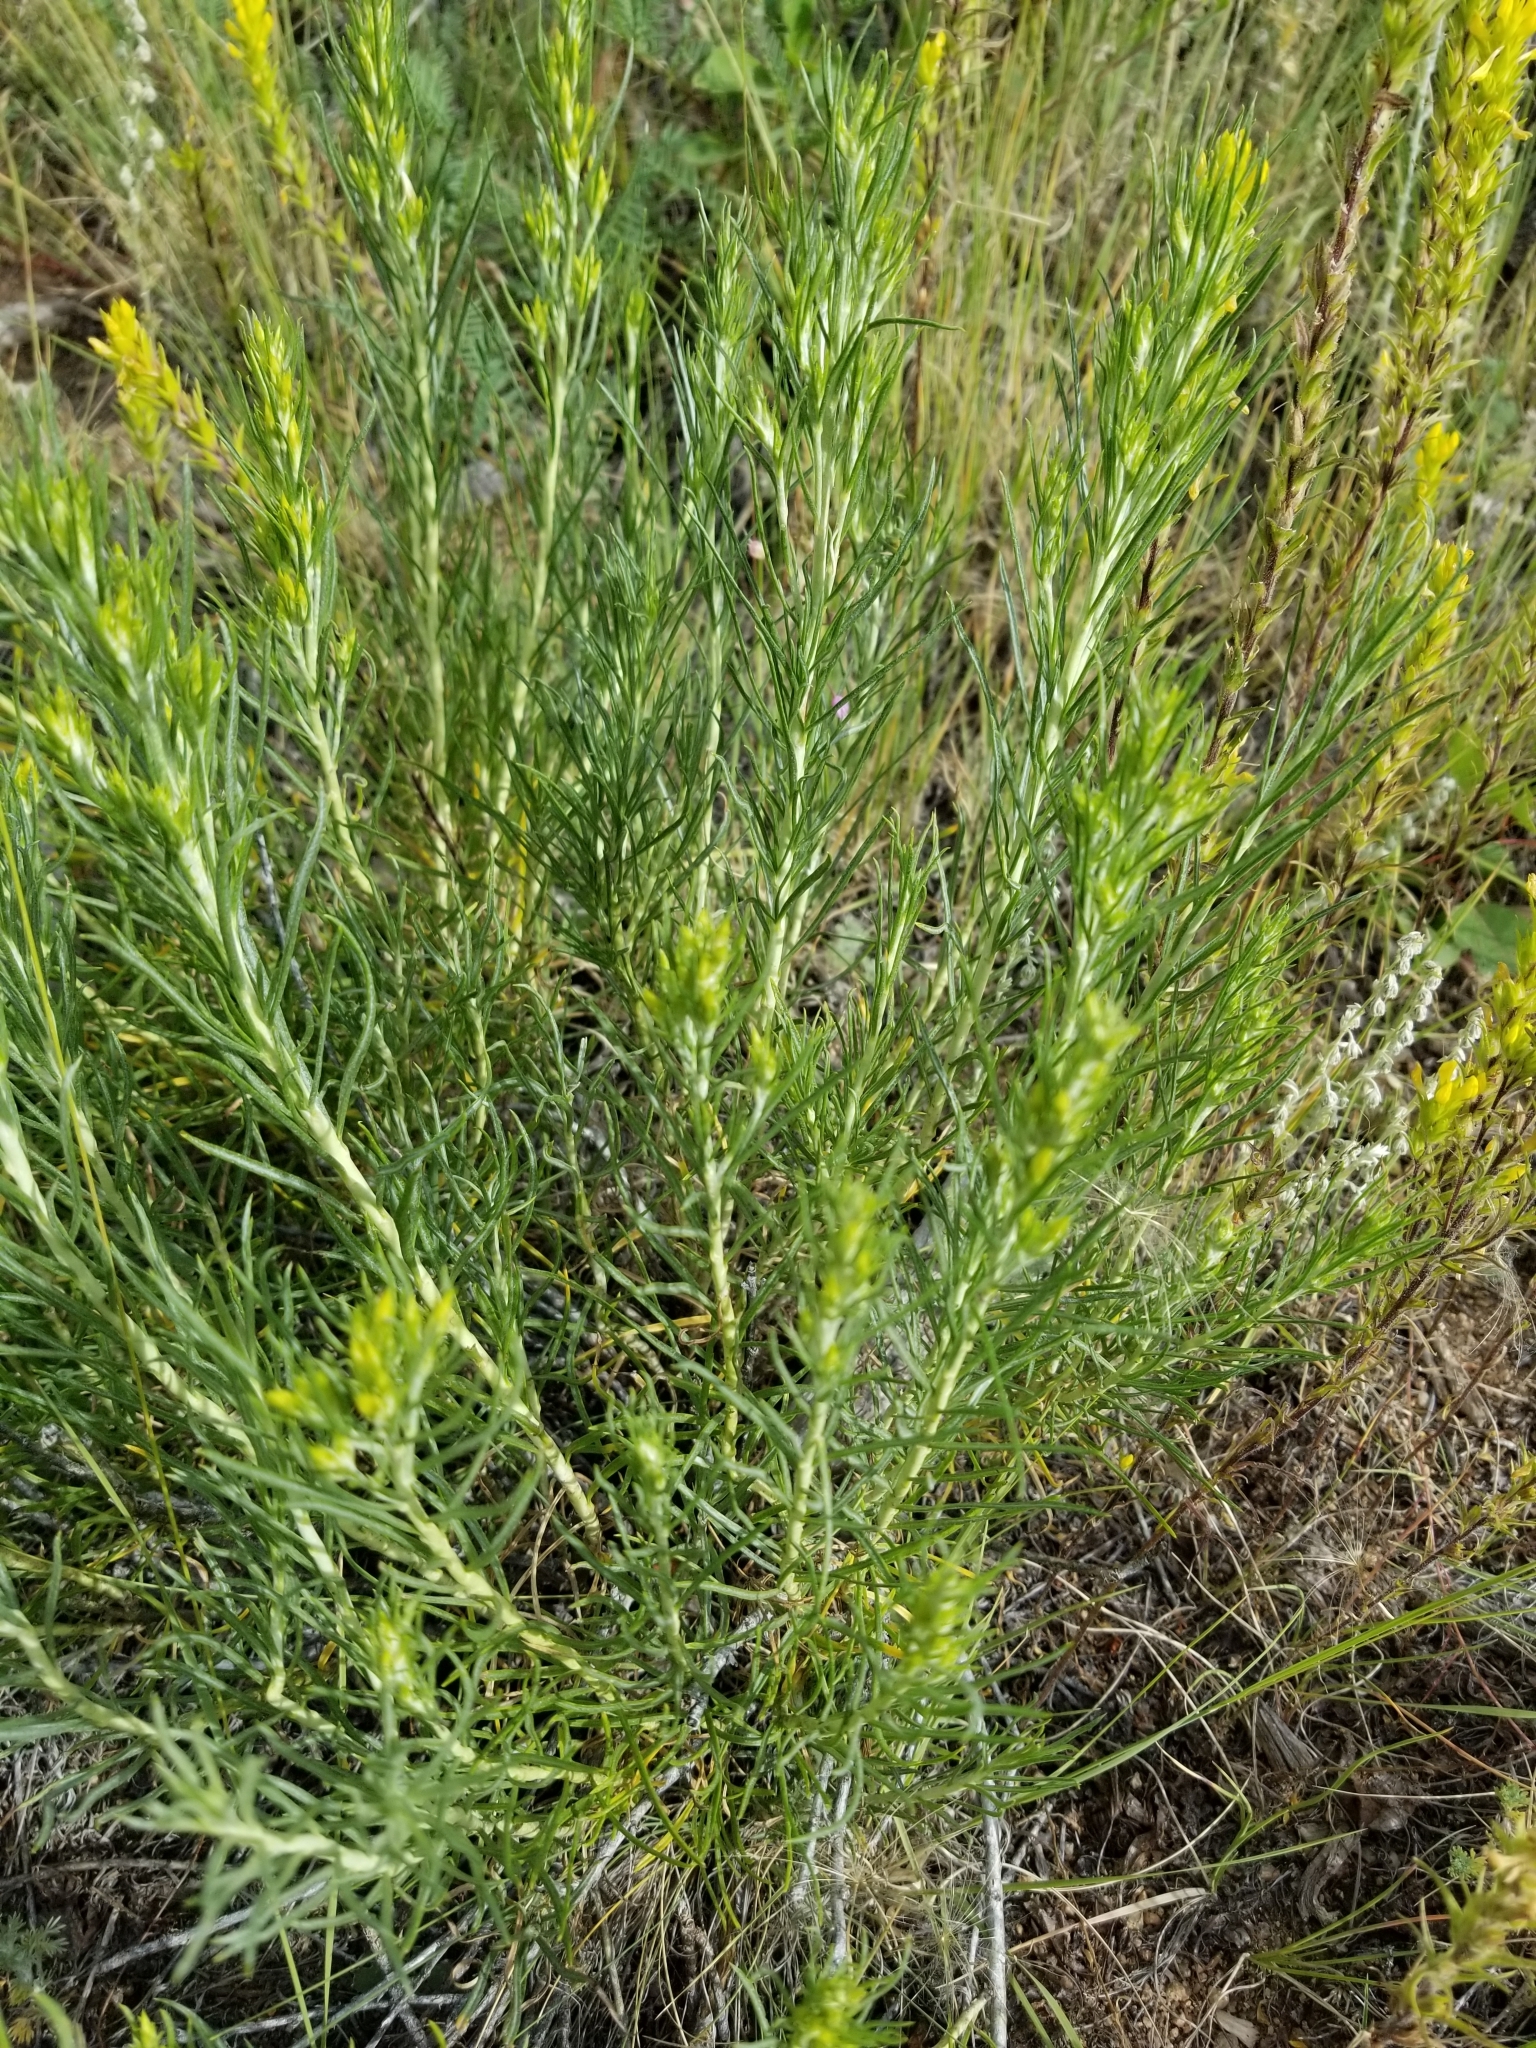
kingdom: Plantae
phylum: Tracheophyta
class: Magnoliopsida
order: Asterales
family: Asteraceae
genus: Ericameria
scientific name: Ericameria nauseosa
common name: Rubber rabbitbrush
